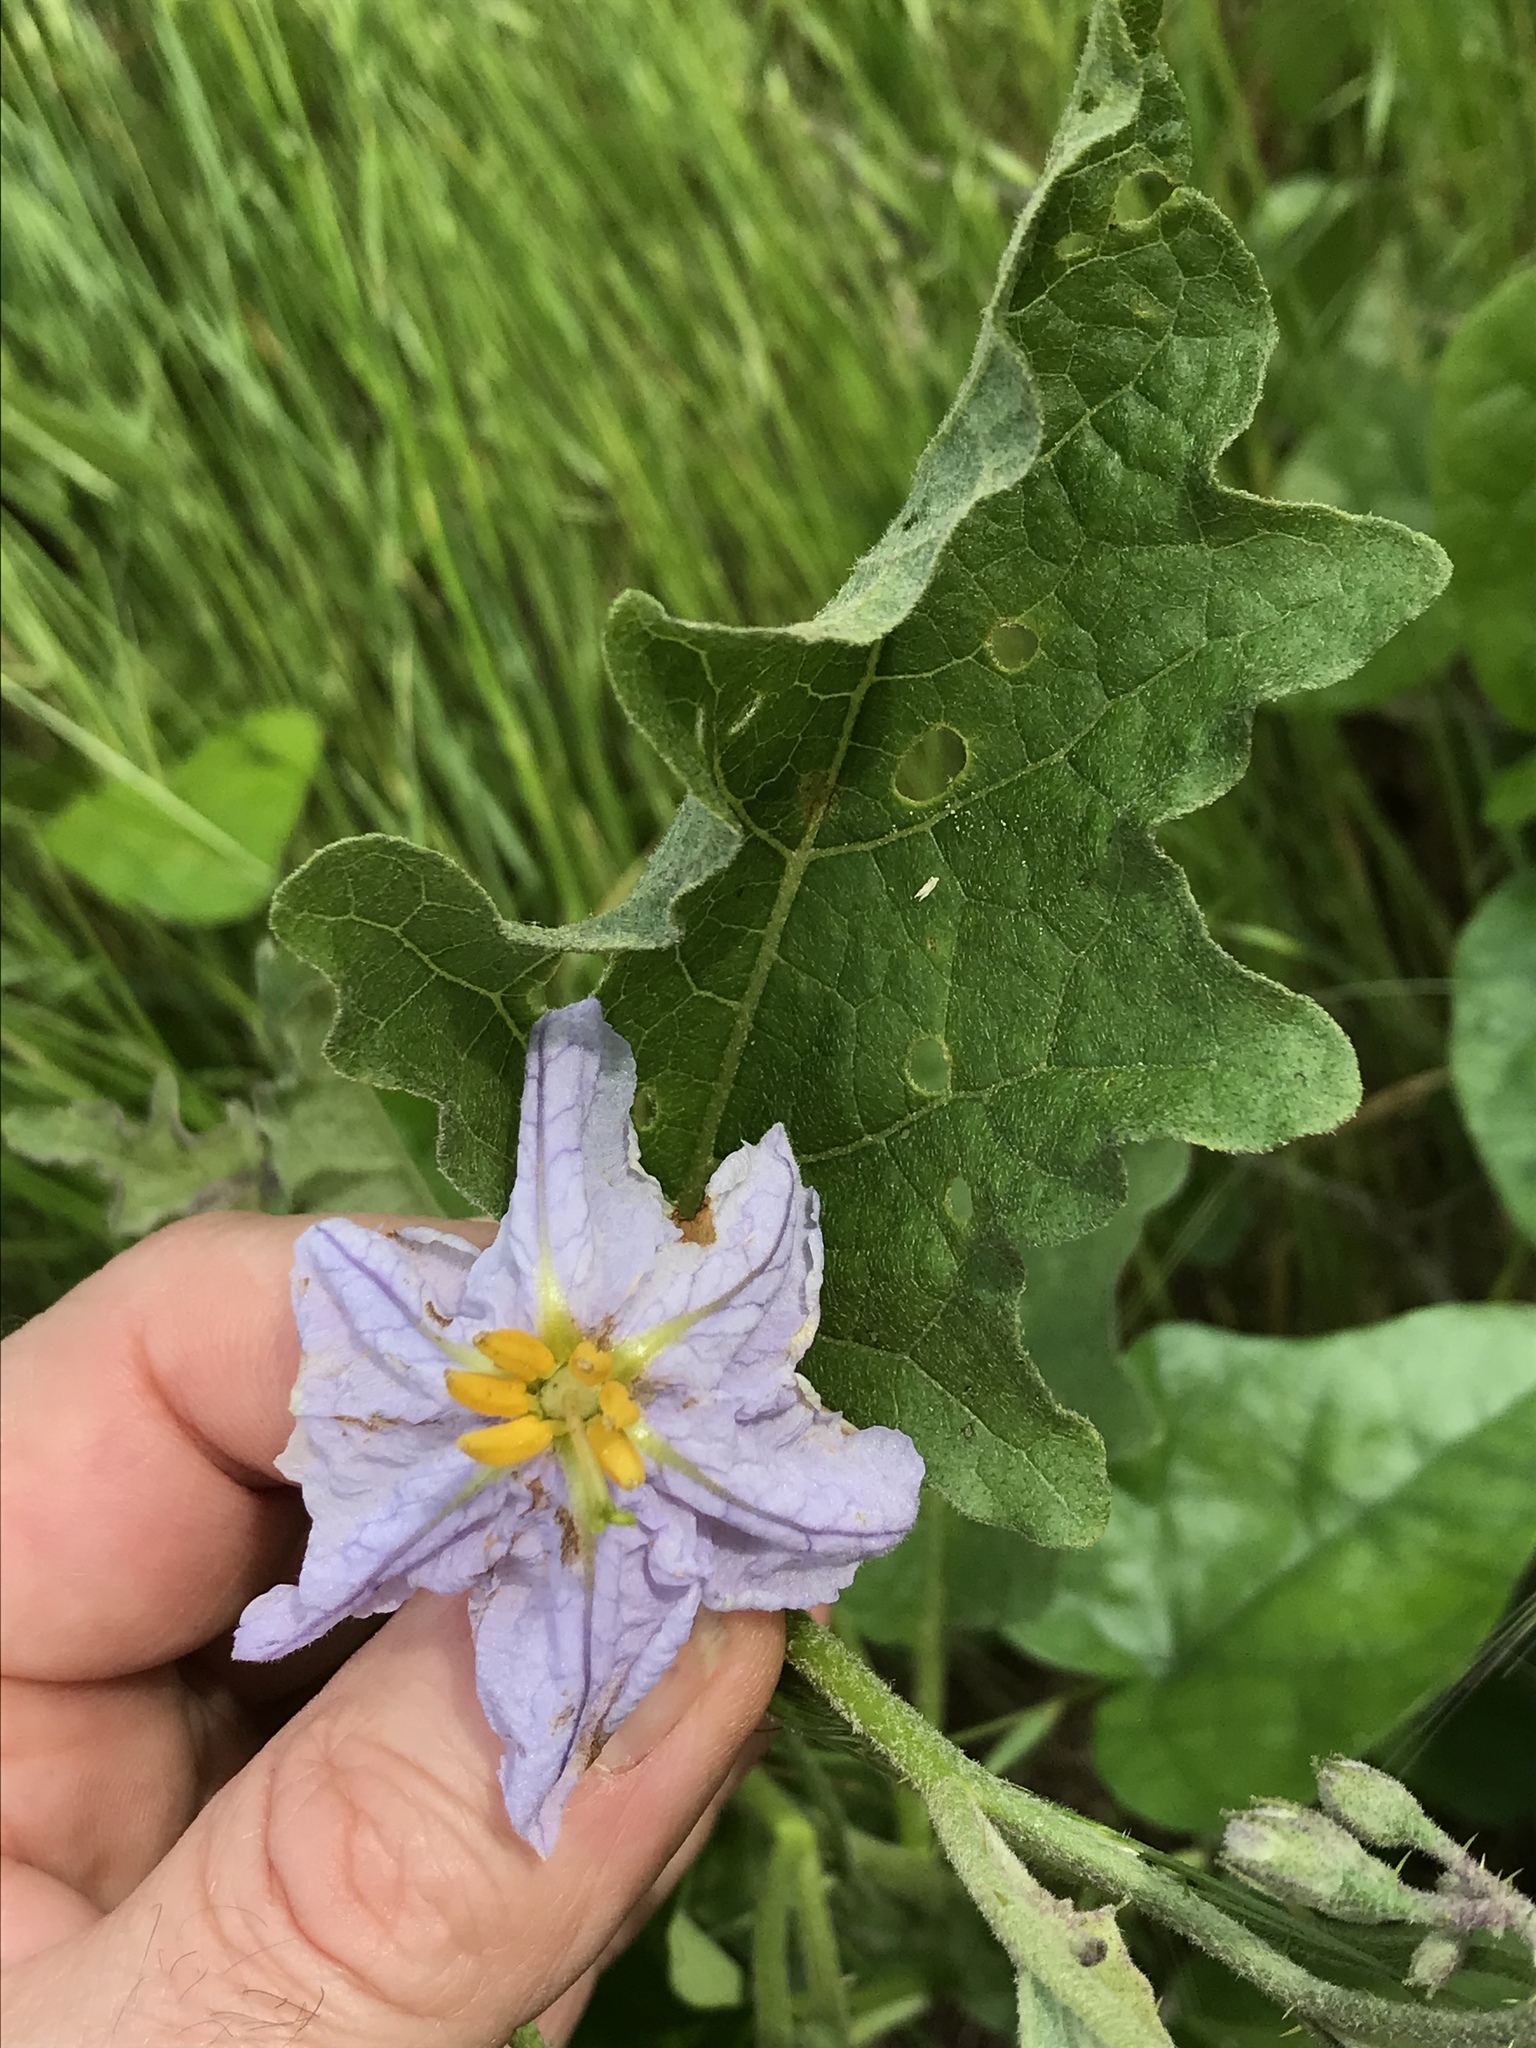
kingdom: Plantae
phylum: Tracheophyta
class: Magnoliopsida
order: Solanales
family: Solanaceae
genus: Solanum
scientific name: Solanum dimidiatum
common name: Carolina horse-nettle
